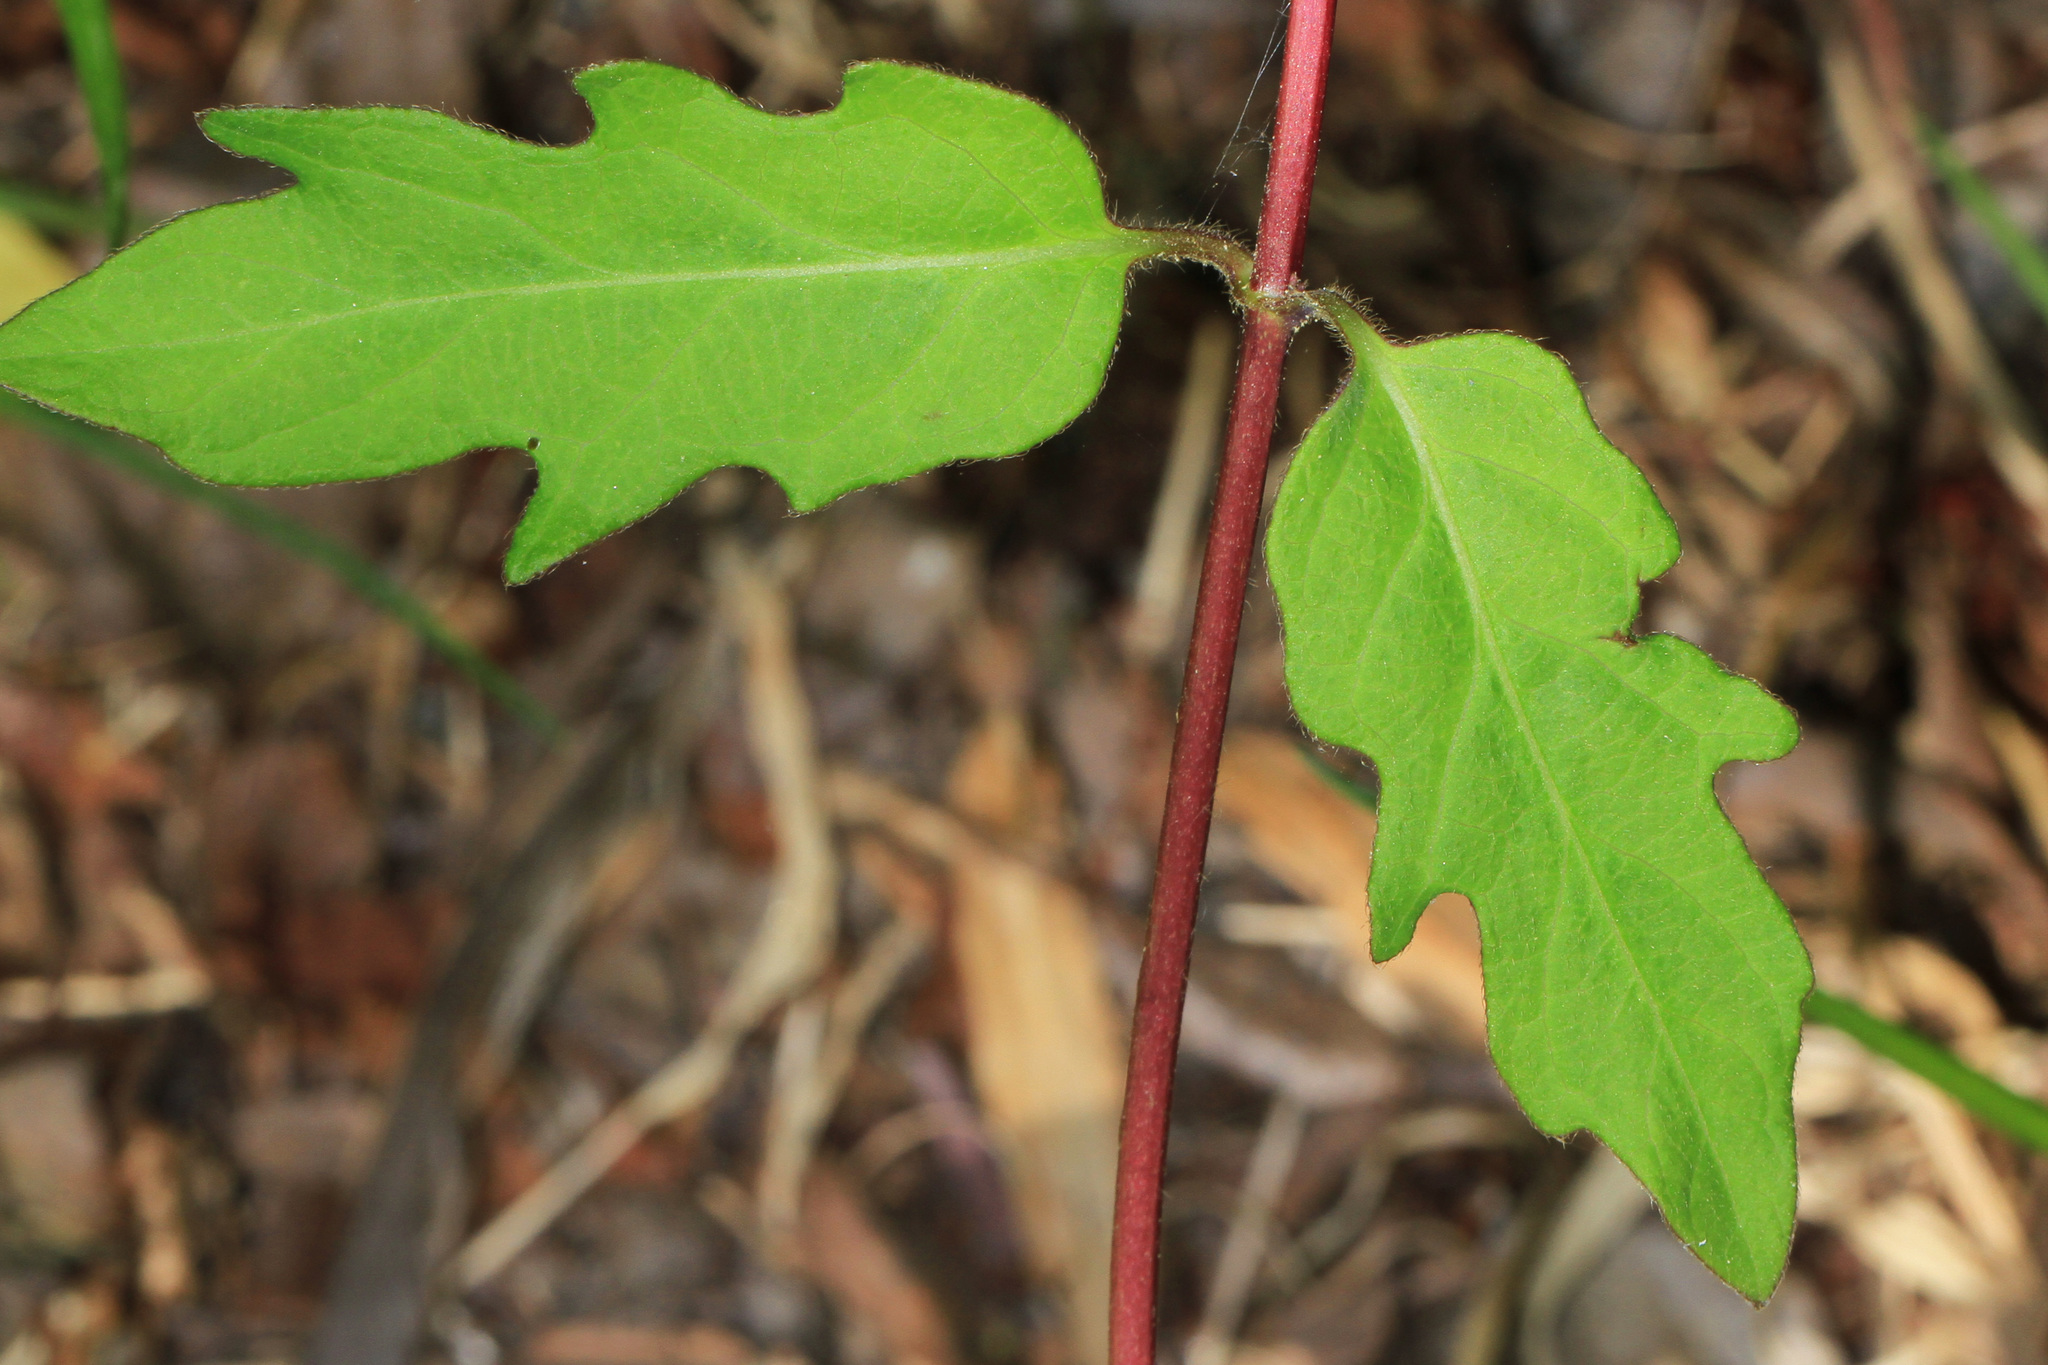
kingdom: Plantae
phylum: Tracheophyta
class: Magnoliopsida
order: Dipsacales
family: Caprifoliaceae
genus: Lonicera
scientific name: Lonicera japonica
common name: Japanese honeysuckle
